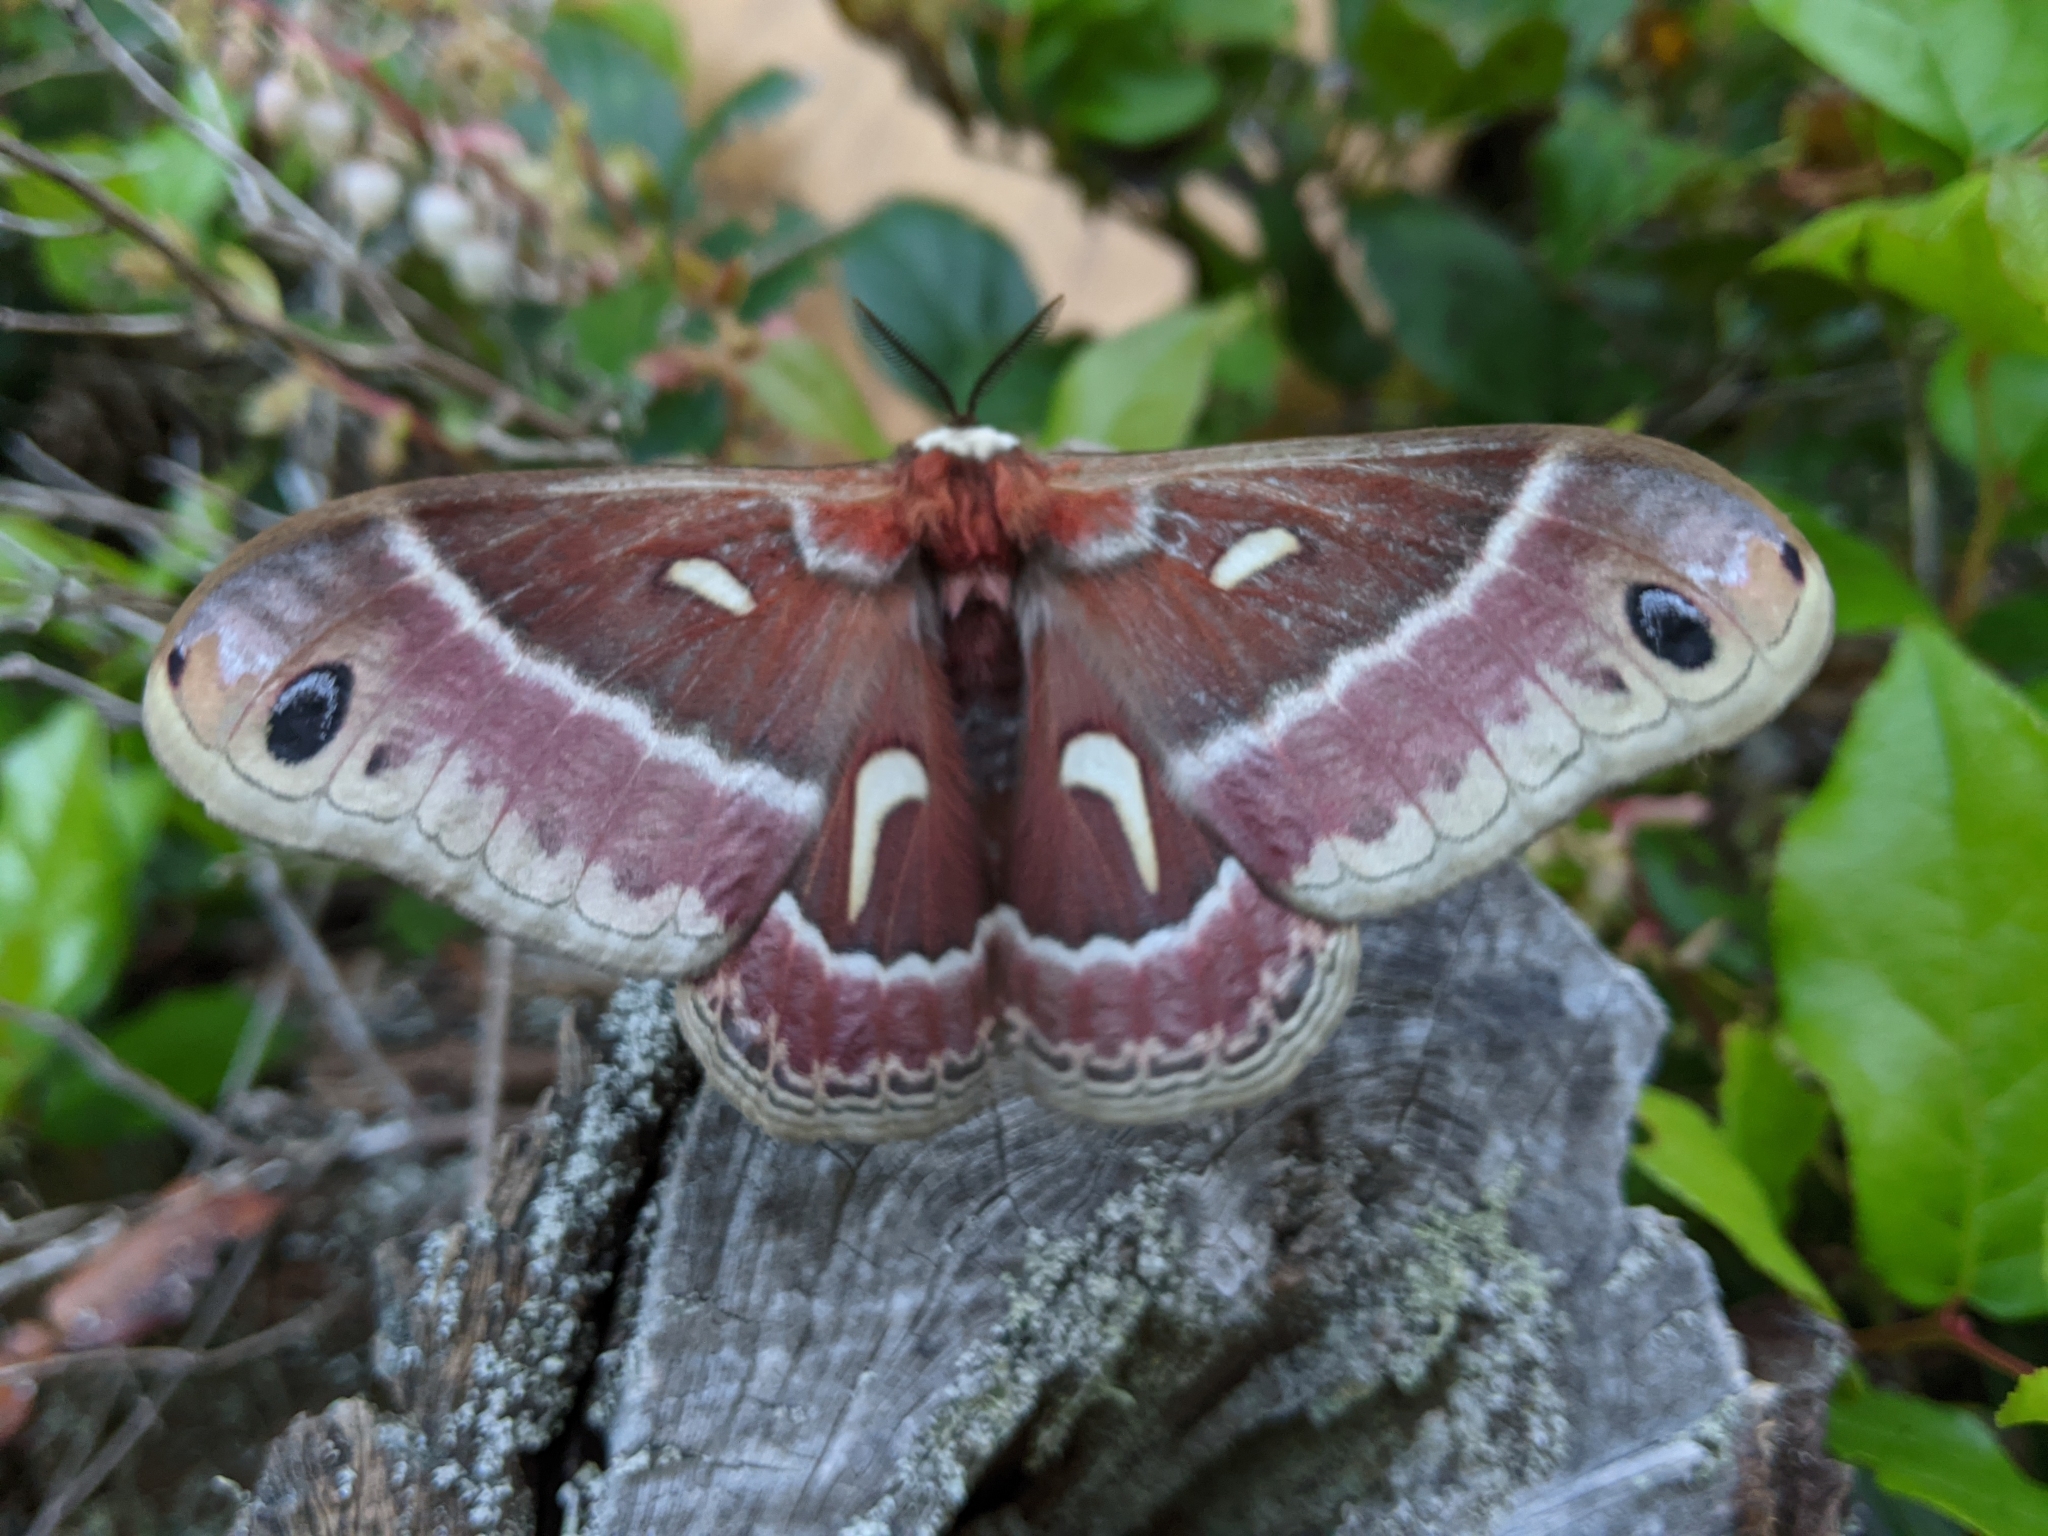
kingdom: Animalia
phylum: Arthropoda
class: Insecta
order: Lepidoptera
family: Saturniidae
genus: Hyalophora
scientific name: Hyalophora euryalus
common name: Ceanothus silkmoth
